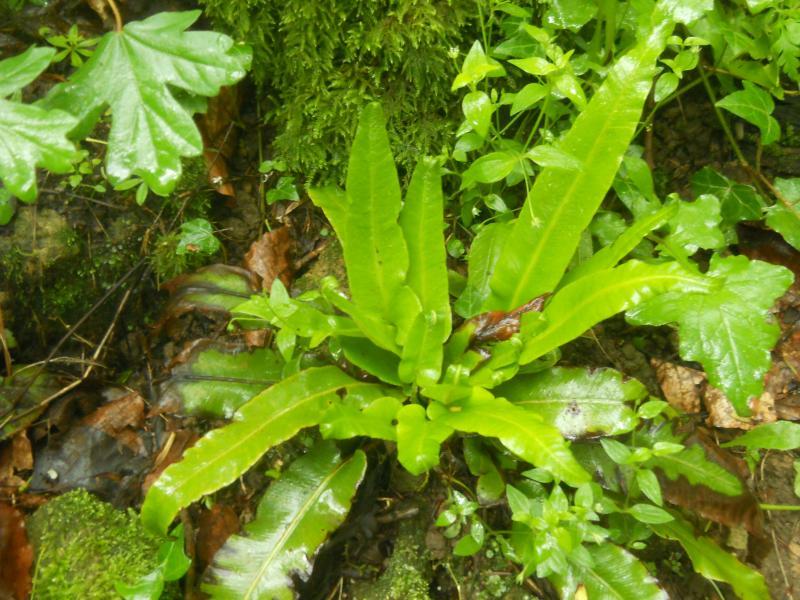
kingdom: Plantae
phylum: Tracheophyta
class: Polypodiopsida
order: Polypodiales
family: Aspleniaceae
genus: Asplenium
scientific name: Asplenium scolopendrium
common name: Hart's-tongue fern
